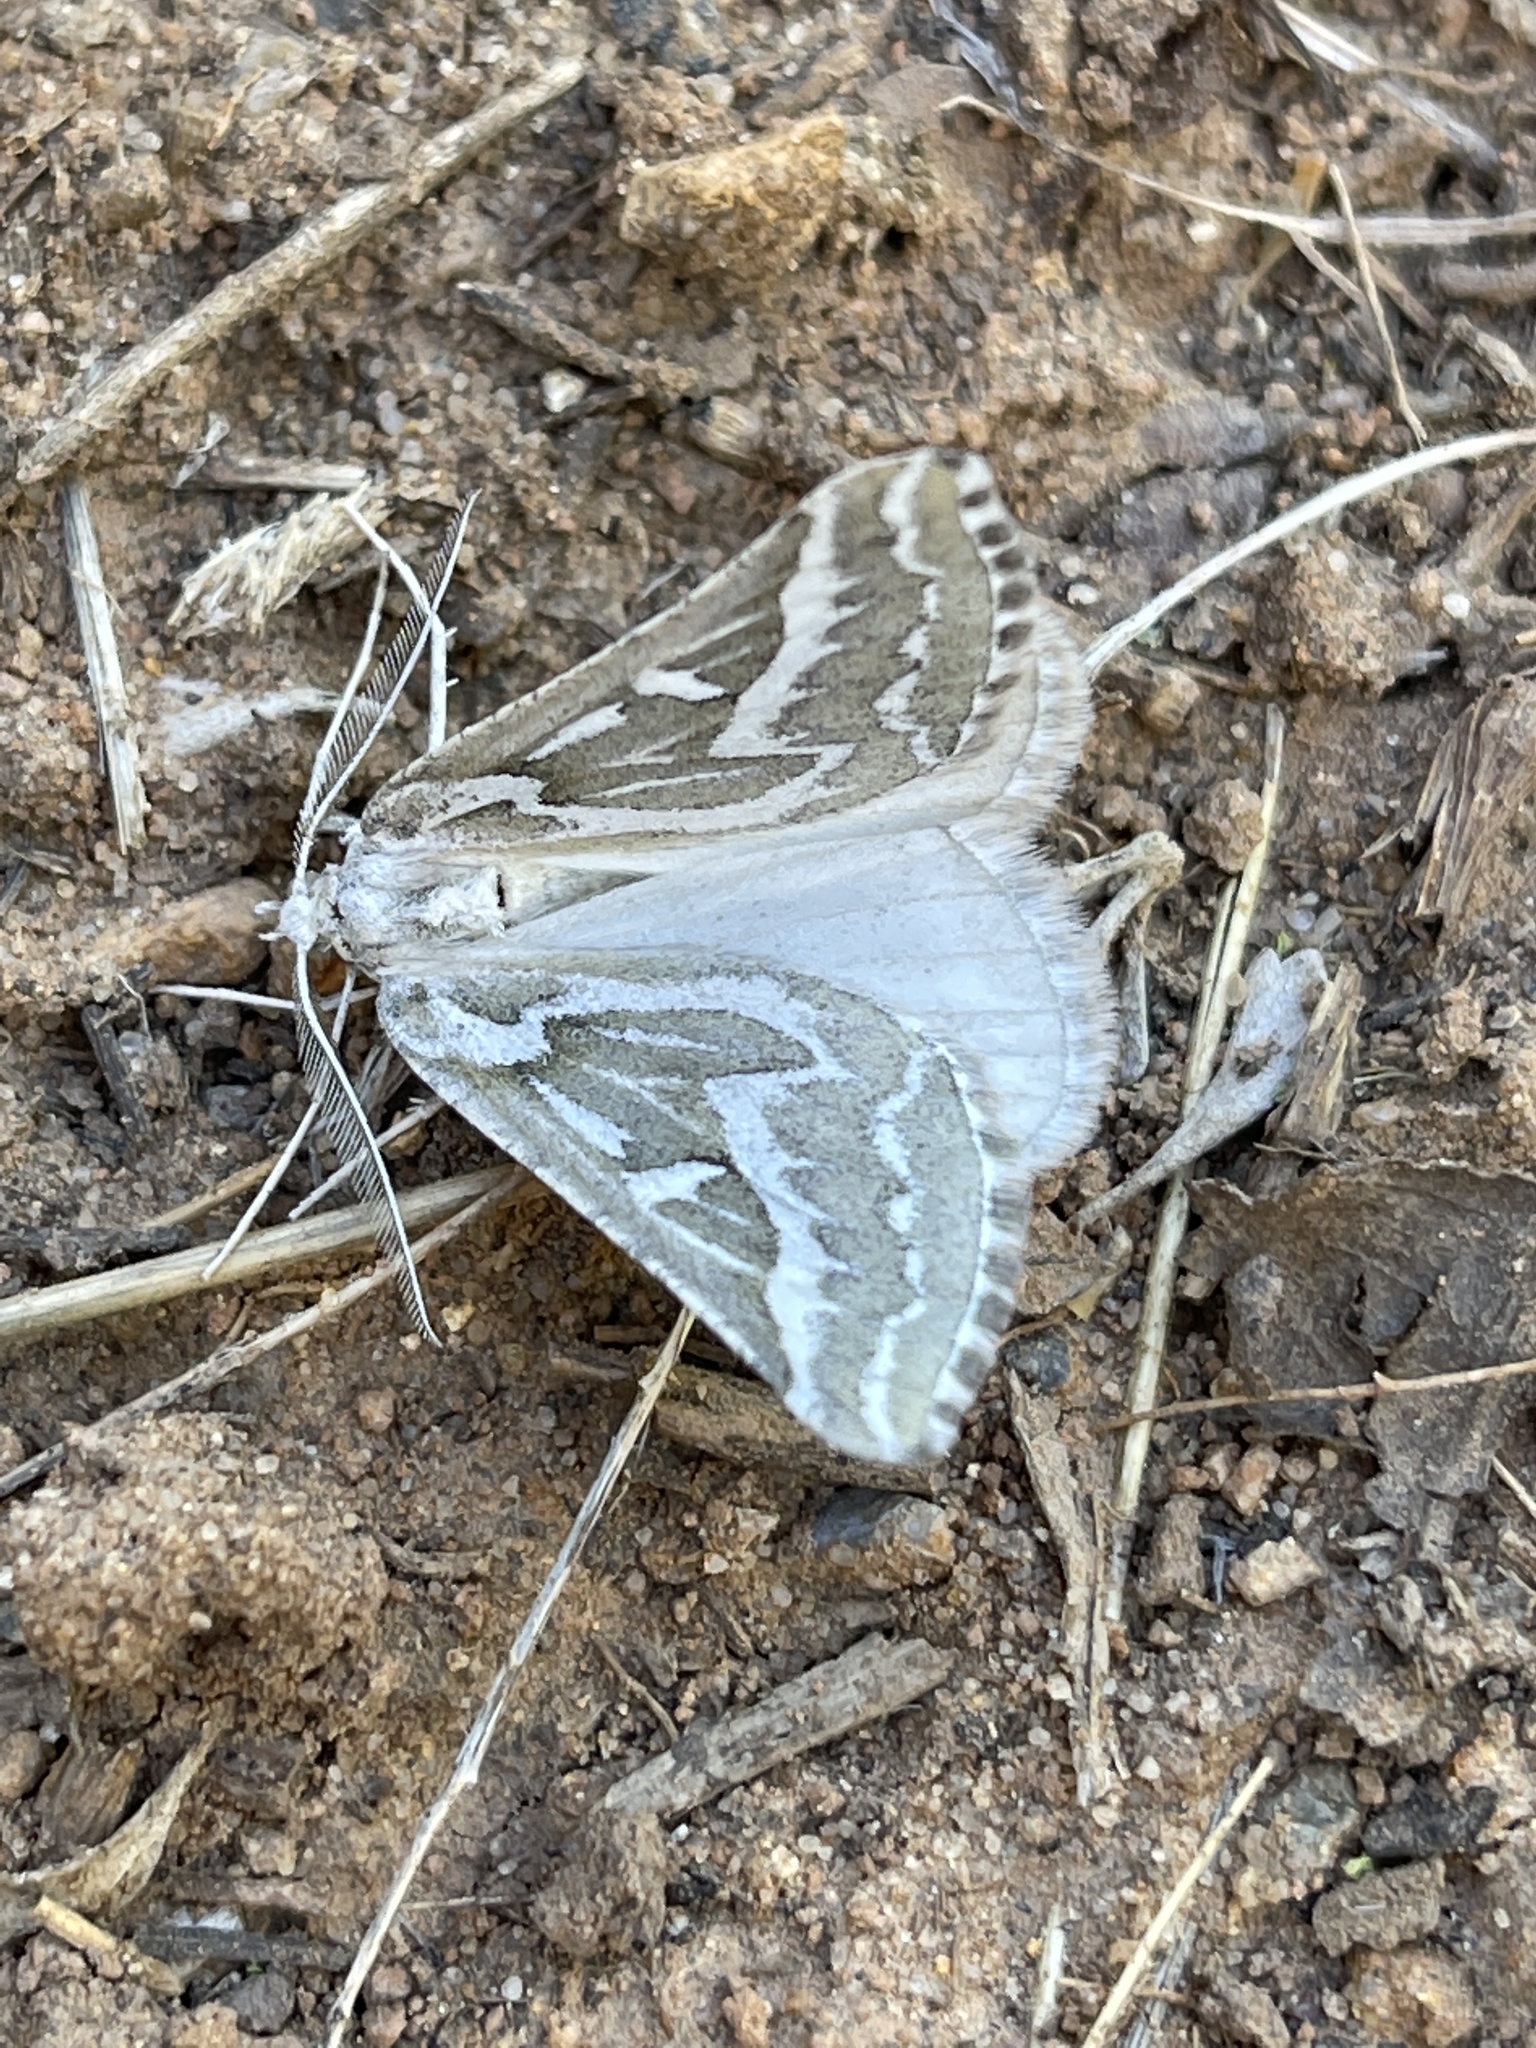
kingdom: Animalia
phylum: Arthropoda
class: Insecta
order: Lepidoptera
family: Geometridae
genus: Plataea
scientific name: Plataea trilinearia
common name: Sagebrush girdle moth
